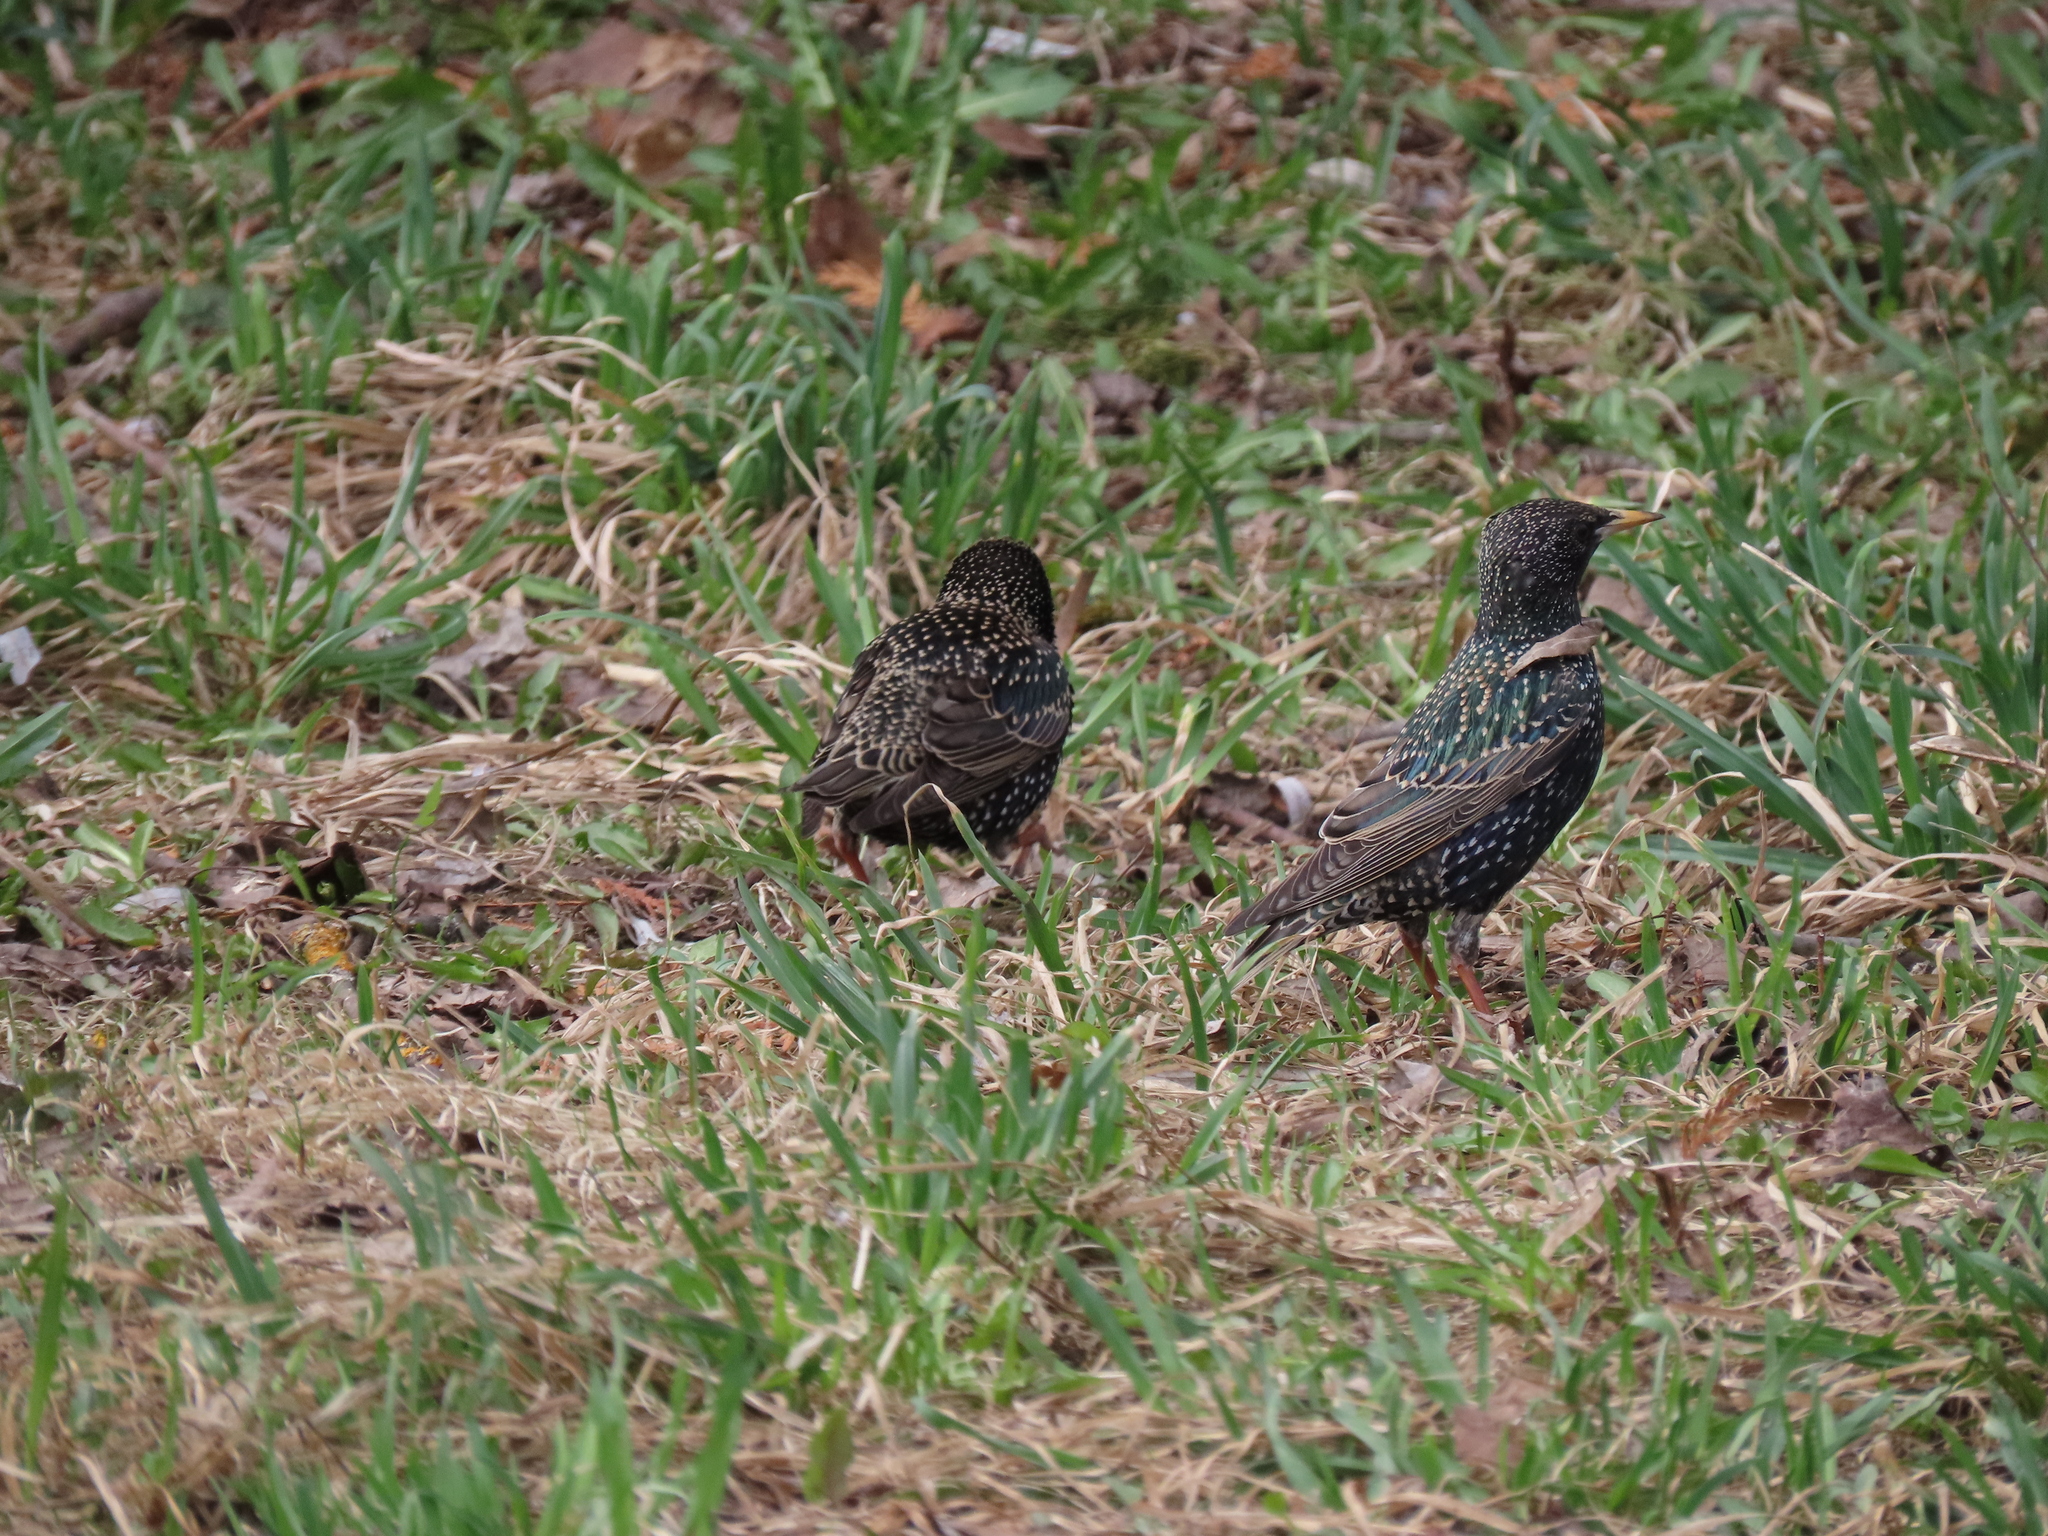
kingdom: Animalia
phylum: Chordata
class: Aves
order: Passeriformes
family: Sturnidae
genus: Sturnus
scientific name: Sturnus vulgaris
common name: Common starling
